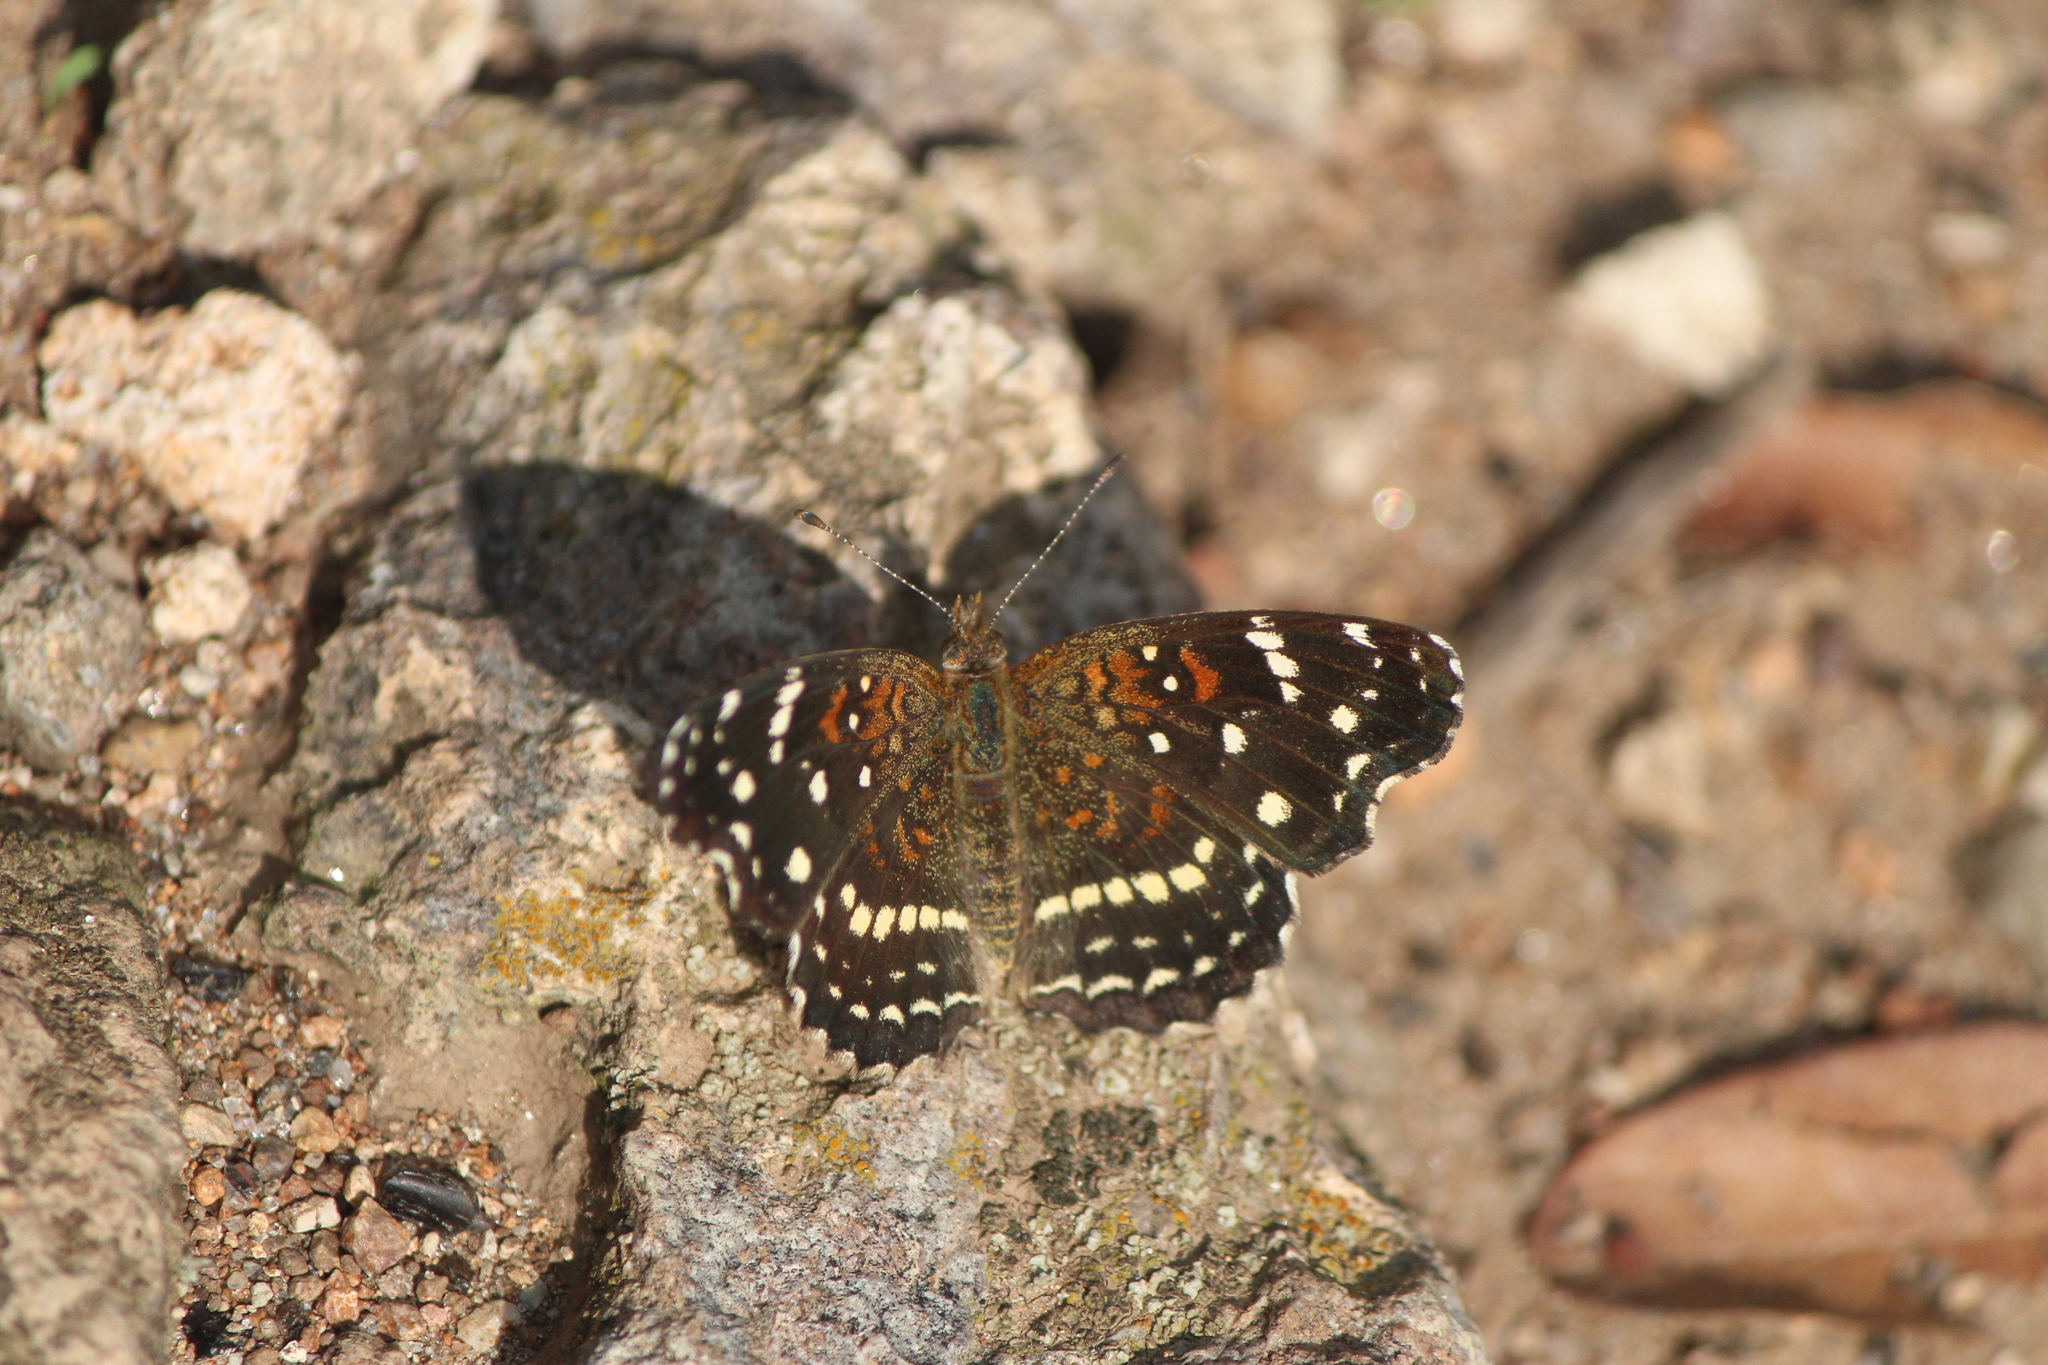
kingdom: Animalia
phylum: Arthropoda
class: Insecta
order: Lepidoptera
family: Nymphalidae
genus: Anthanassa
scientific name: Anthanassa texana
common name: Texan crescent
